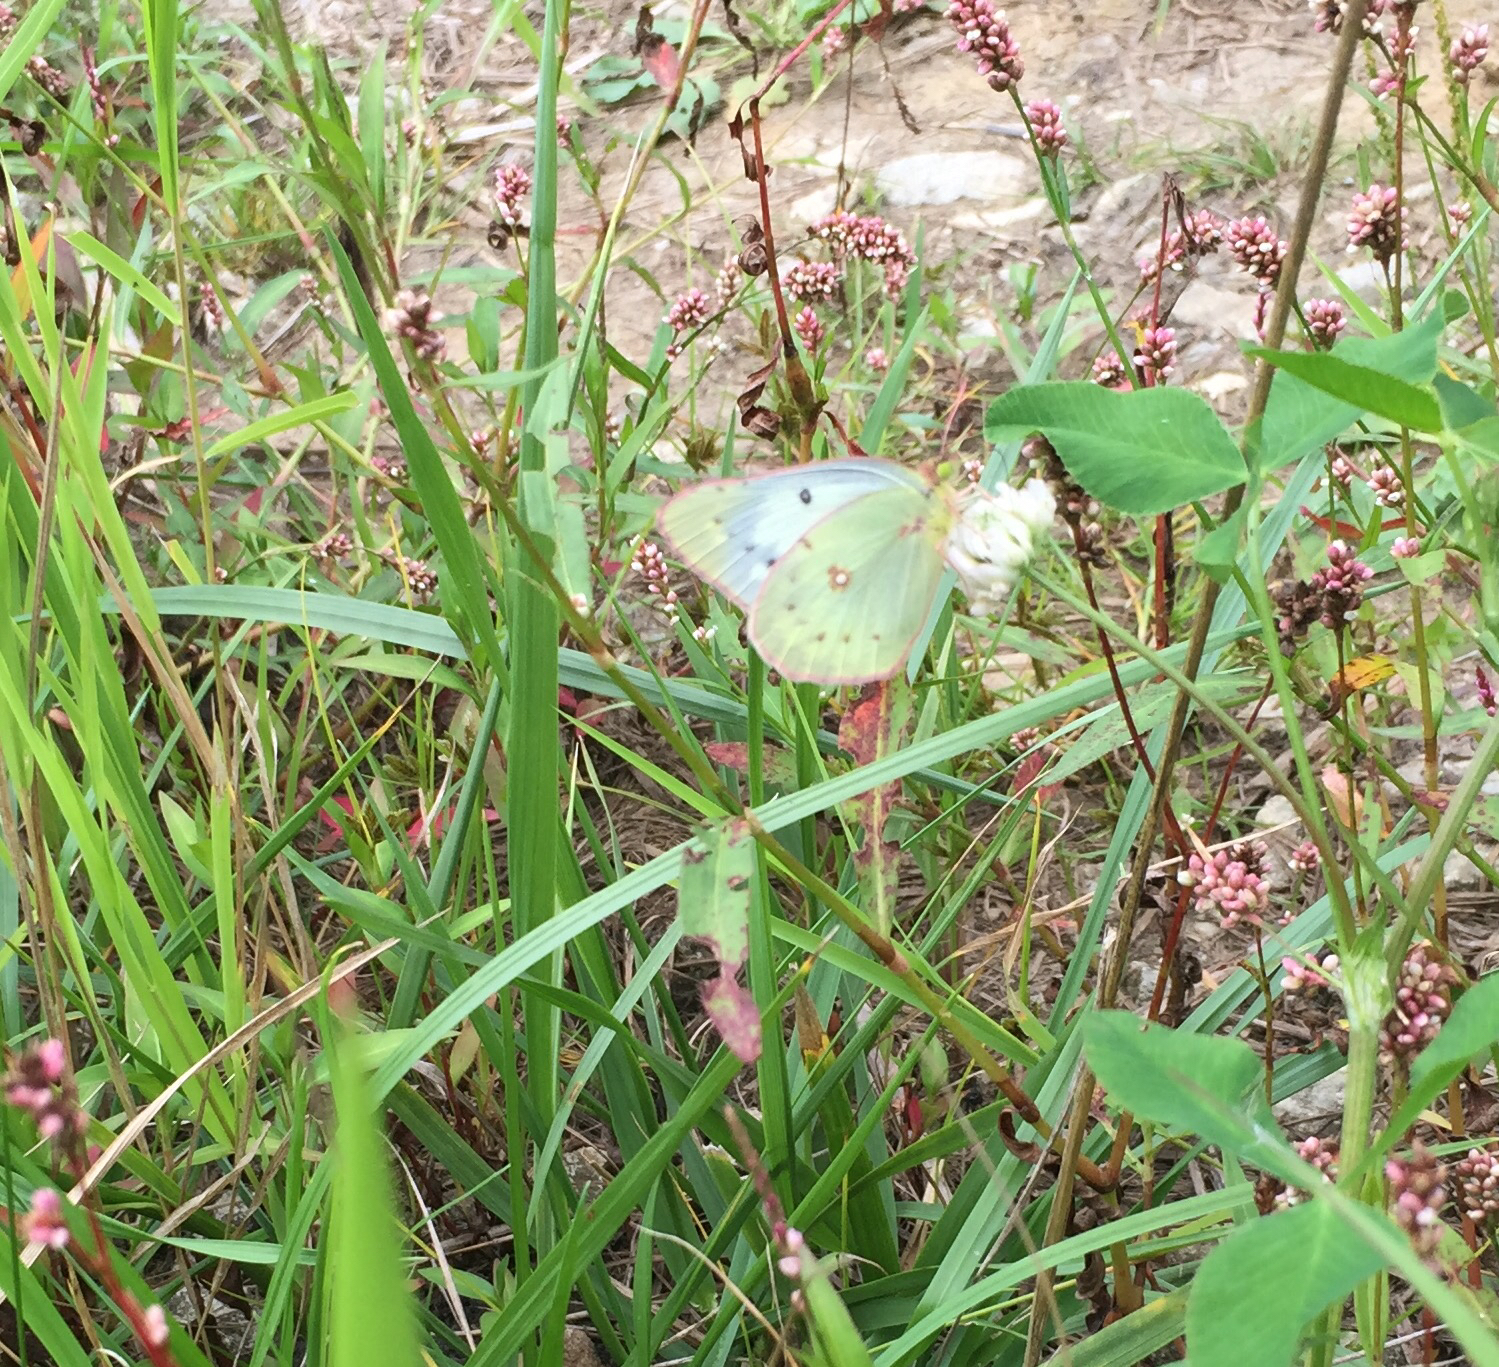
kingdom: Animalia
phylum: Arthropoda
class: Insecta
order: Lepidoptera
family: Pieridae
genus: Colias
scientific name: Colias eurytheme
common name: Alfalfa butterfly
